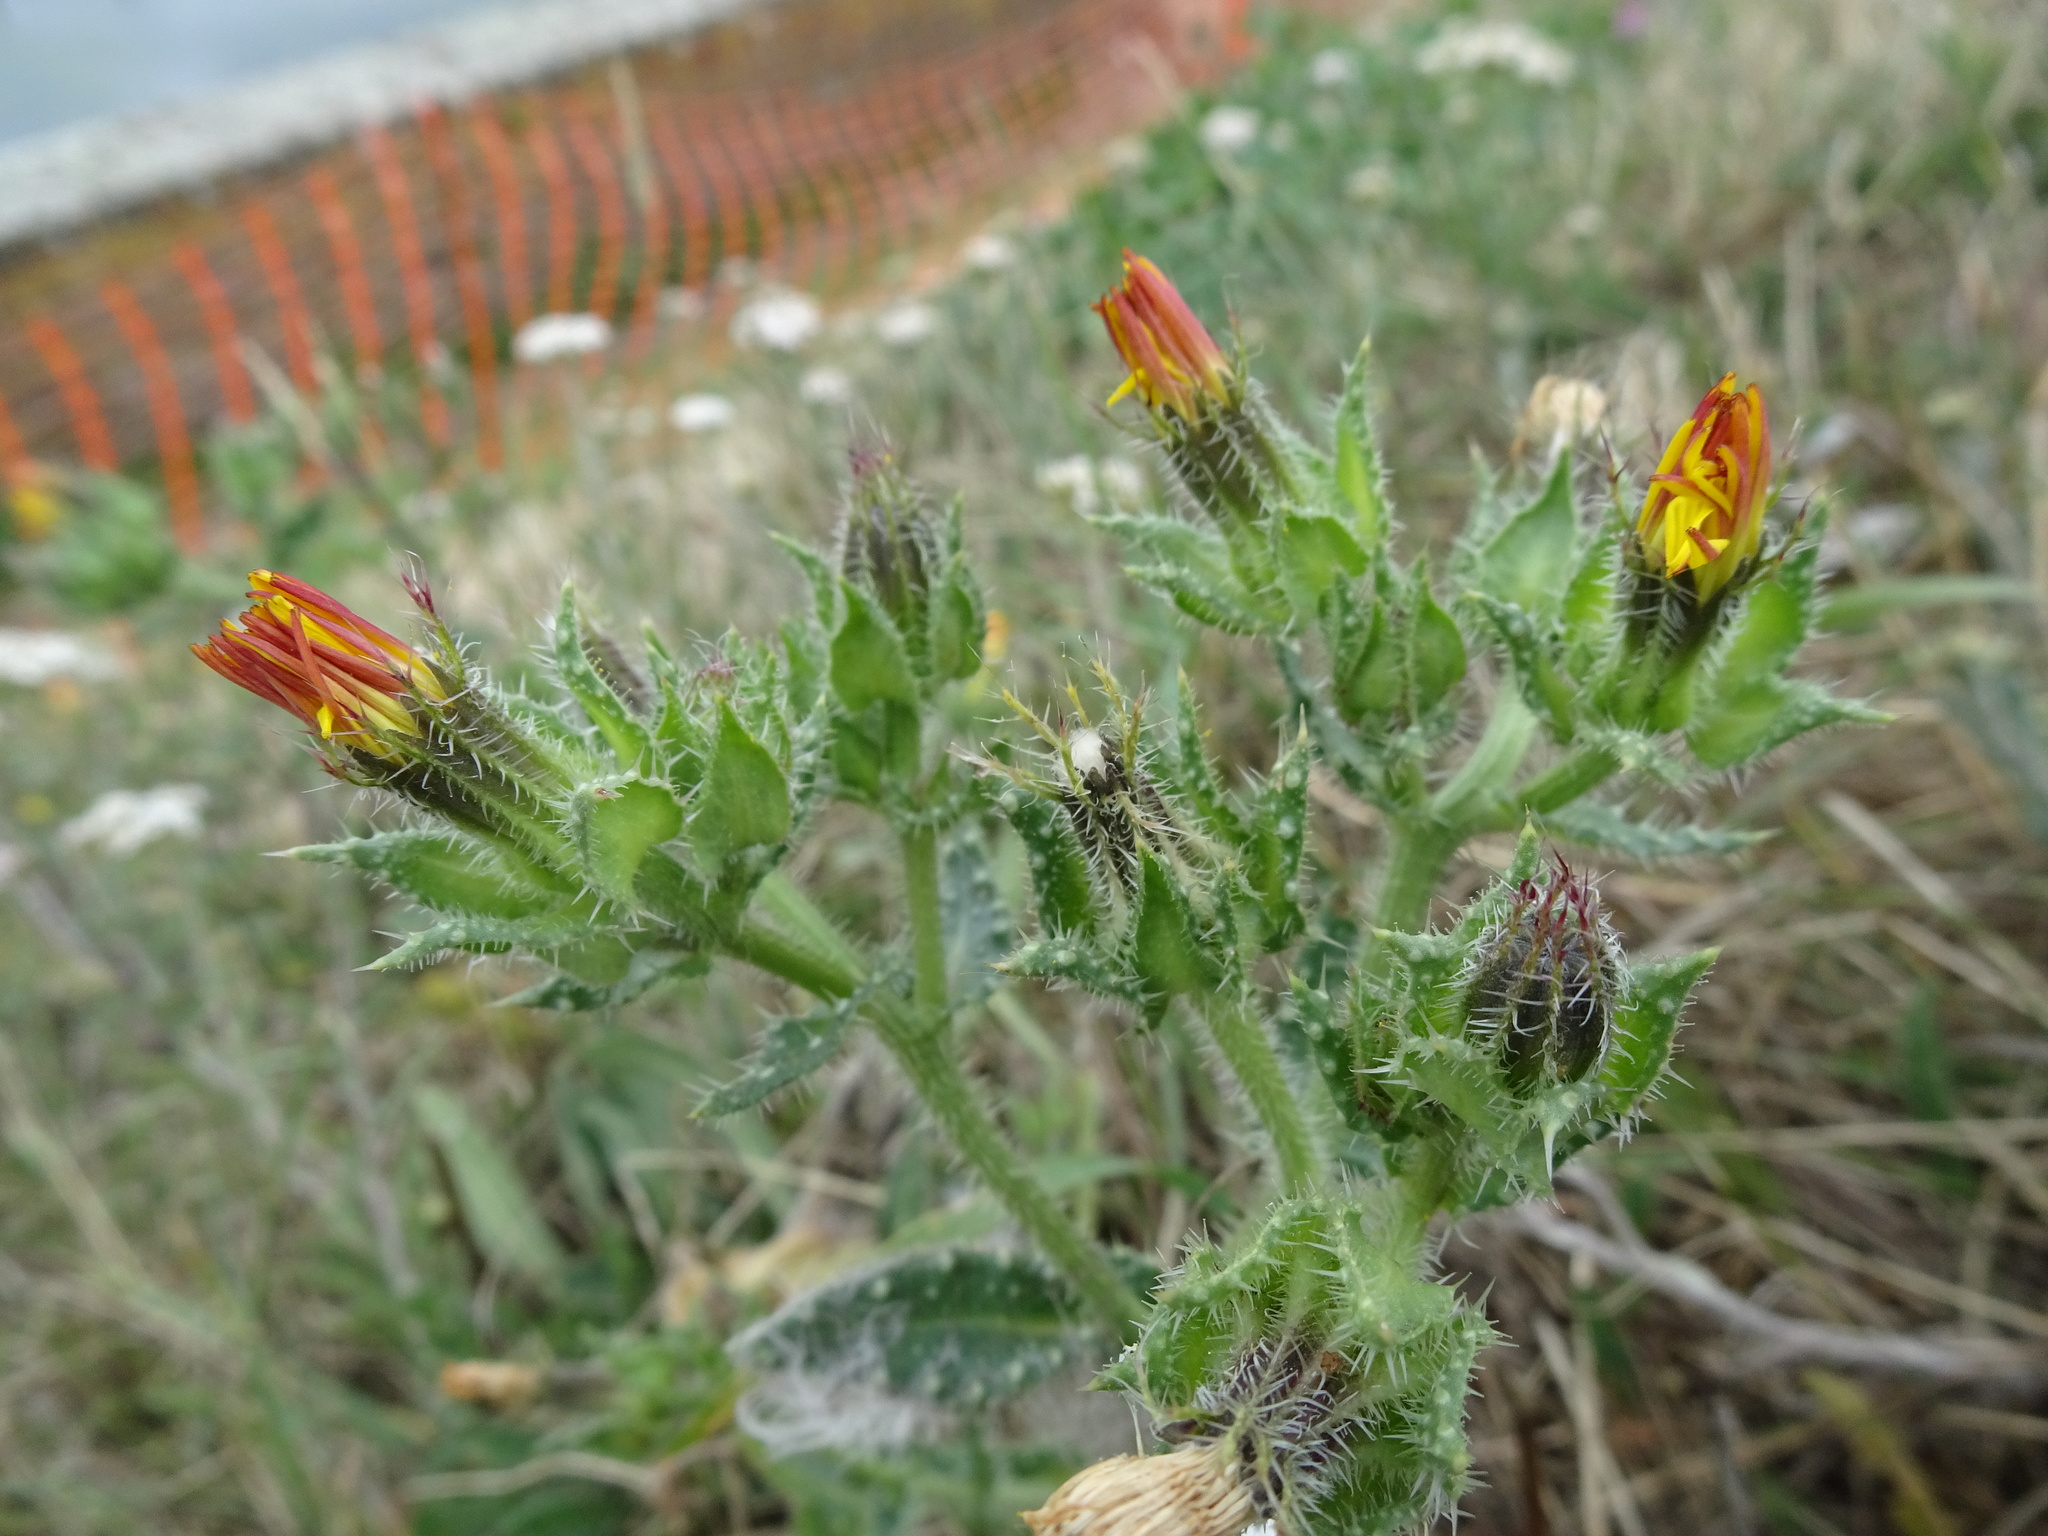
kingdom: Plantae
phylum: Tracheophyta
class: Magnoliopsida
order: Asterales
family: Asteraceae
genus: Helminthotheca
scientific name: Helminthotheca echioides
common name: Ox-tongue
